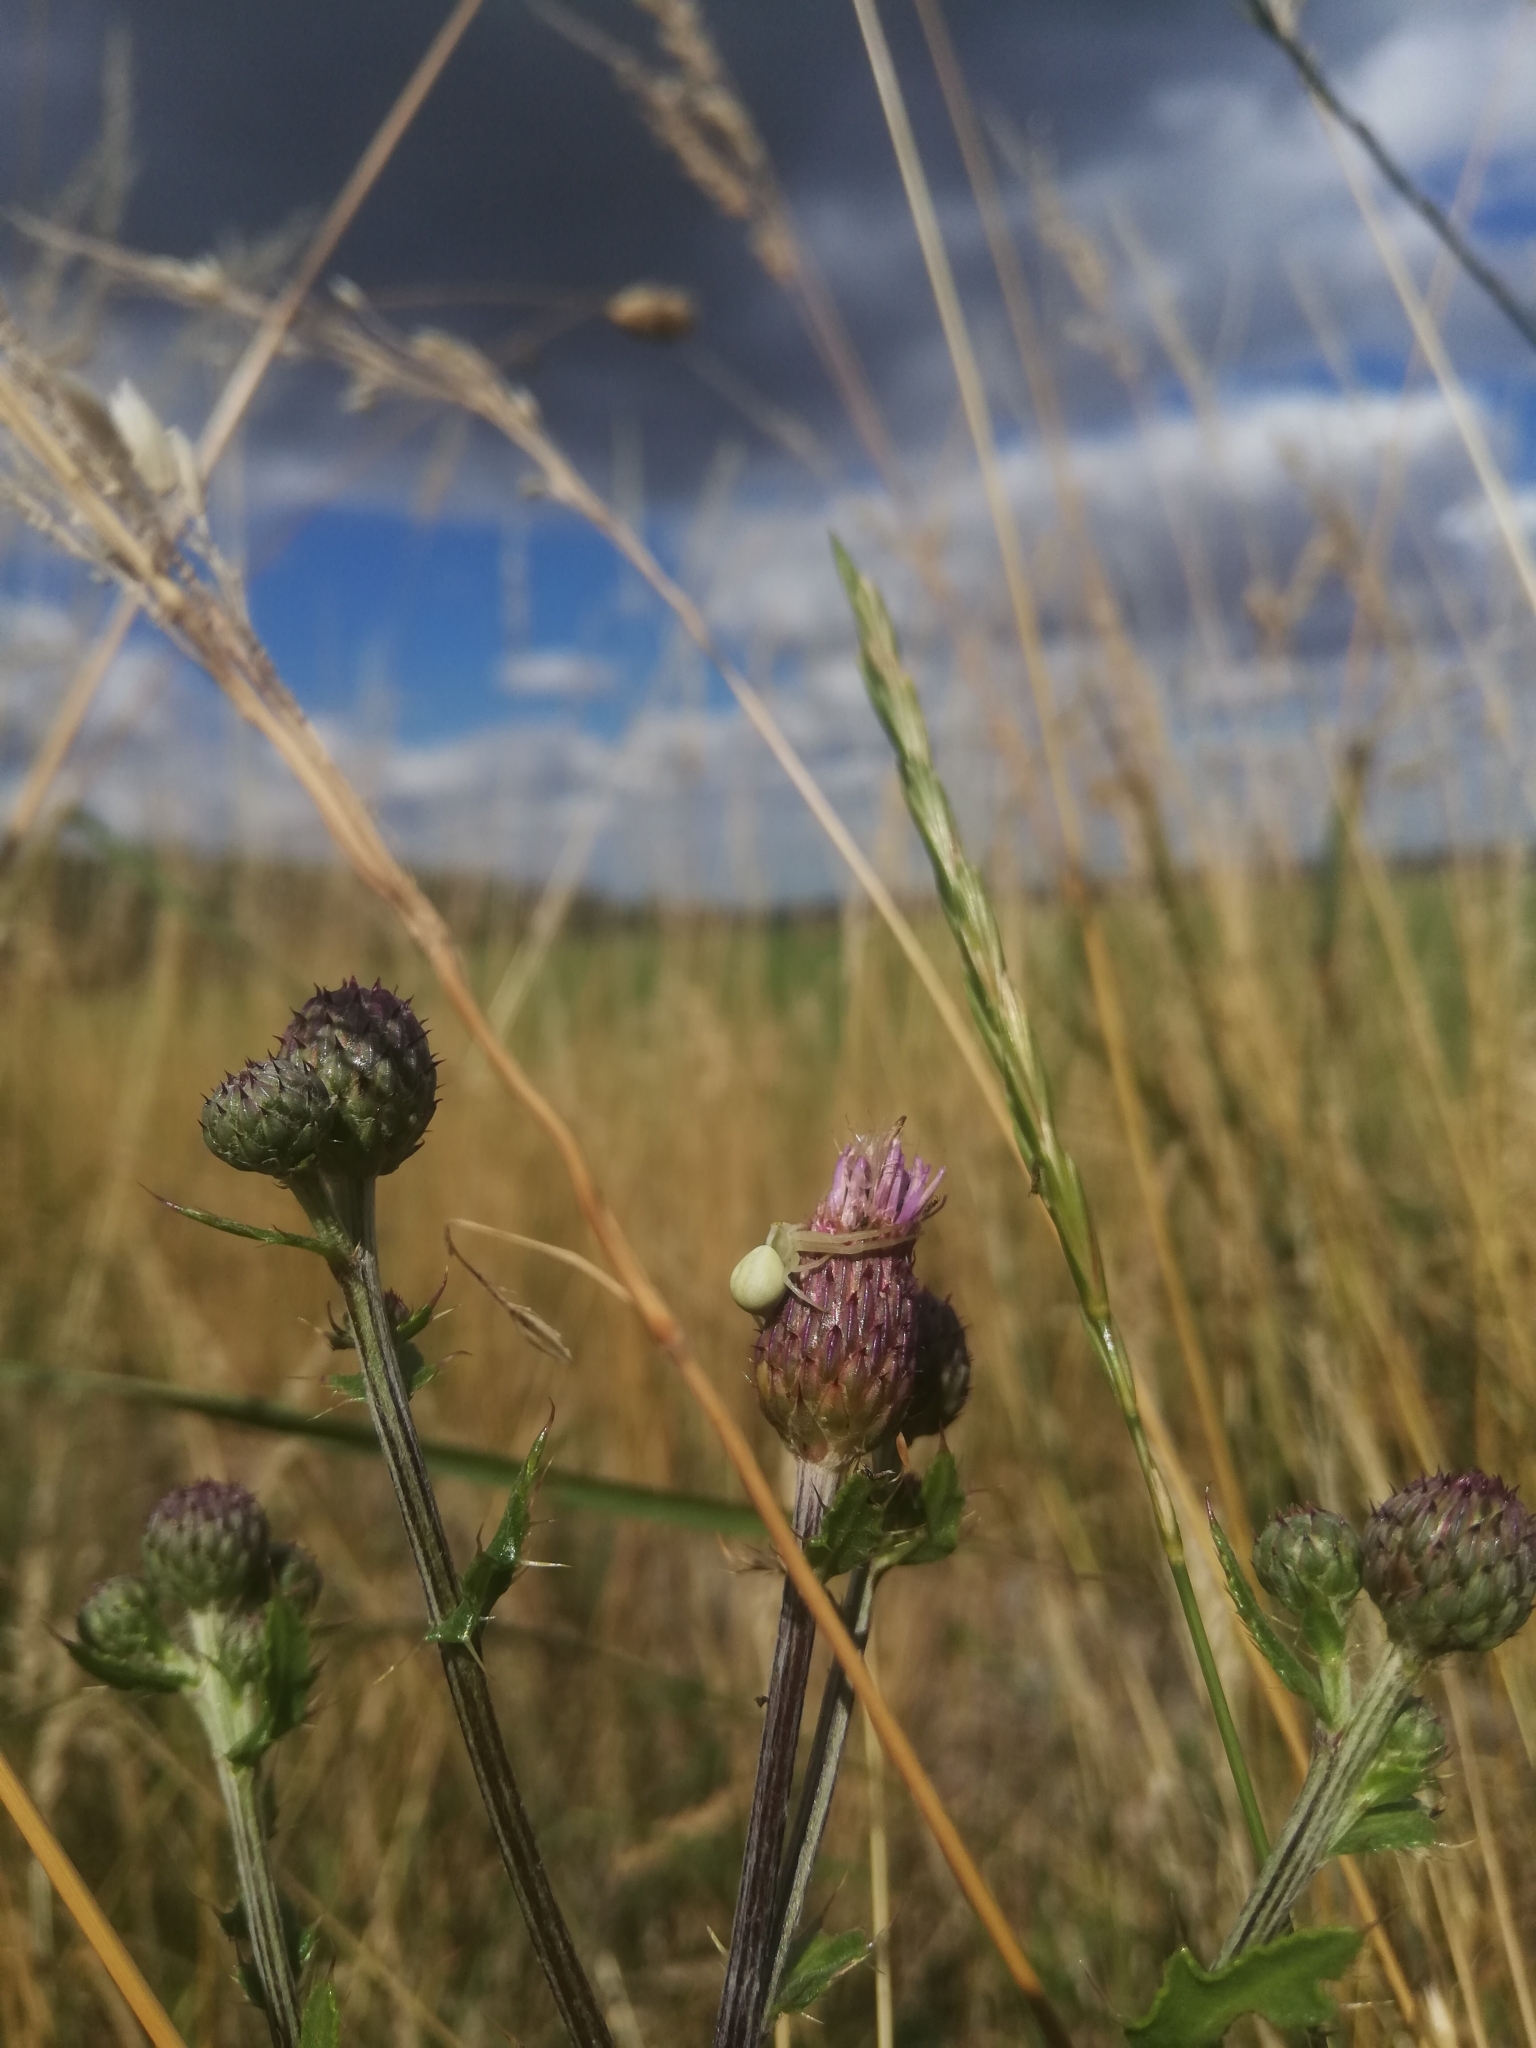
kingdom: Animalia
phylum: Arthropoda
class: Arachnida
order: Araneae
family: Thomisidae
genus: Misumena
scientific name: Misumena vatia
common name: Goldenrod crab spider
